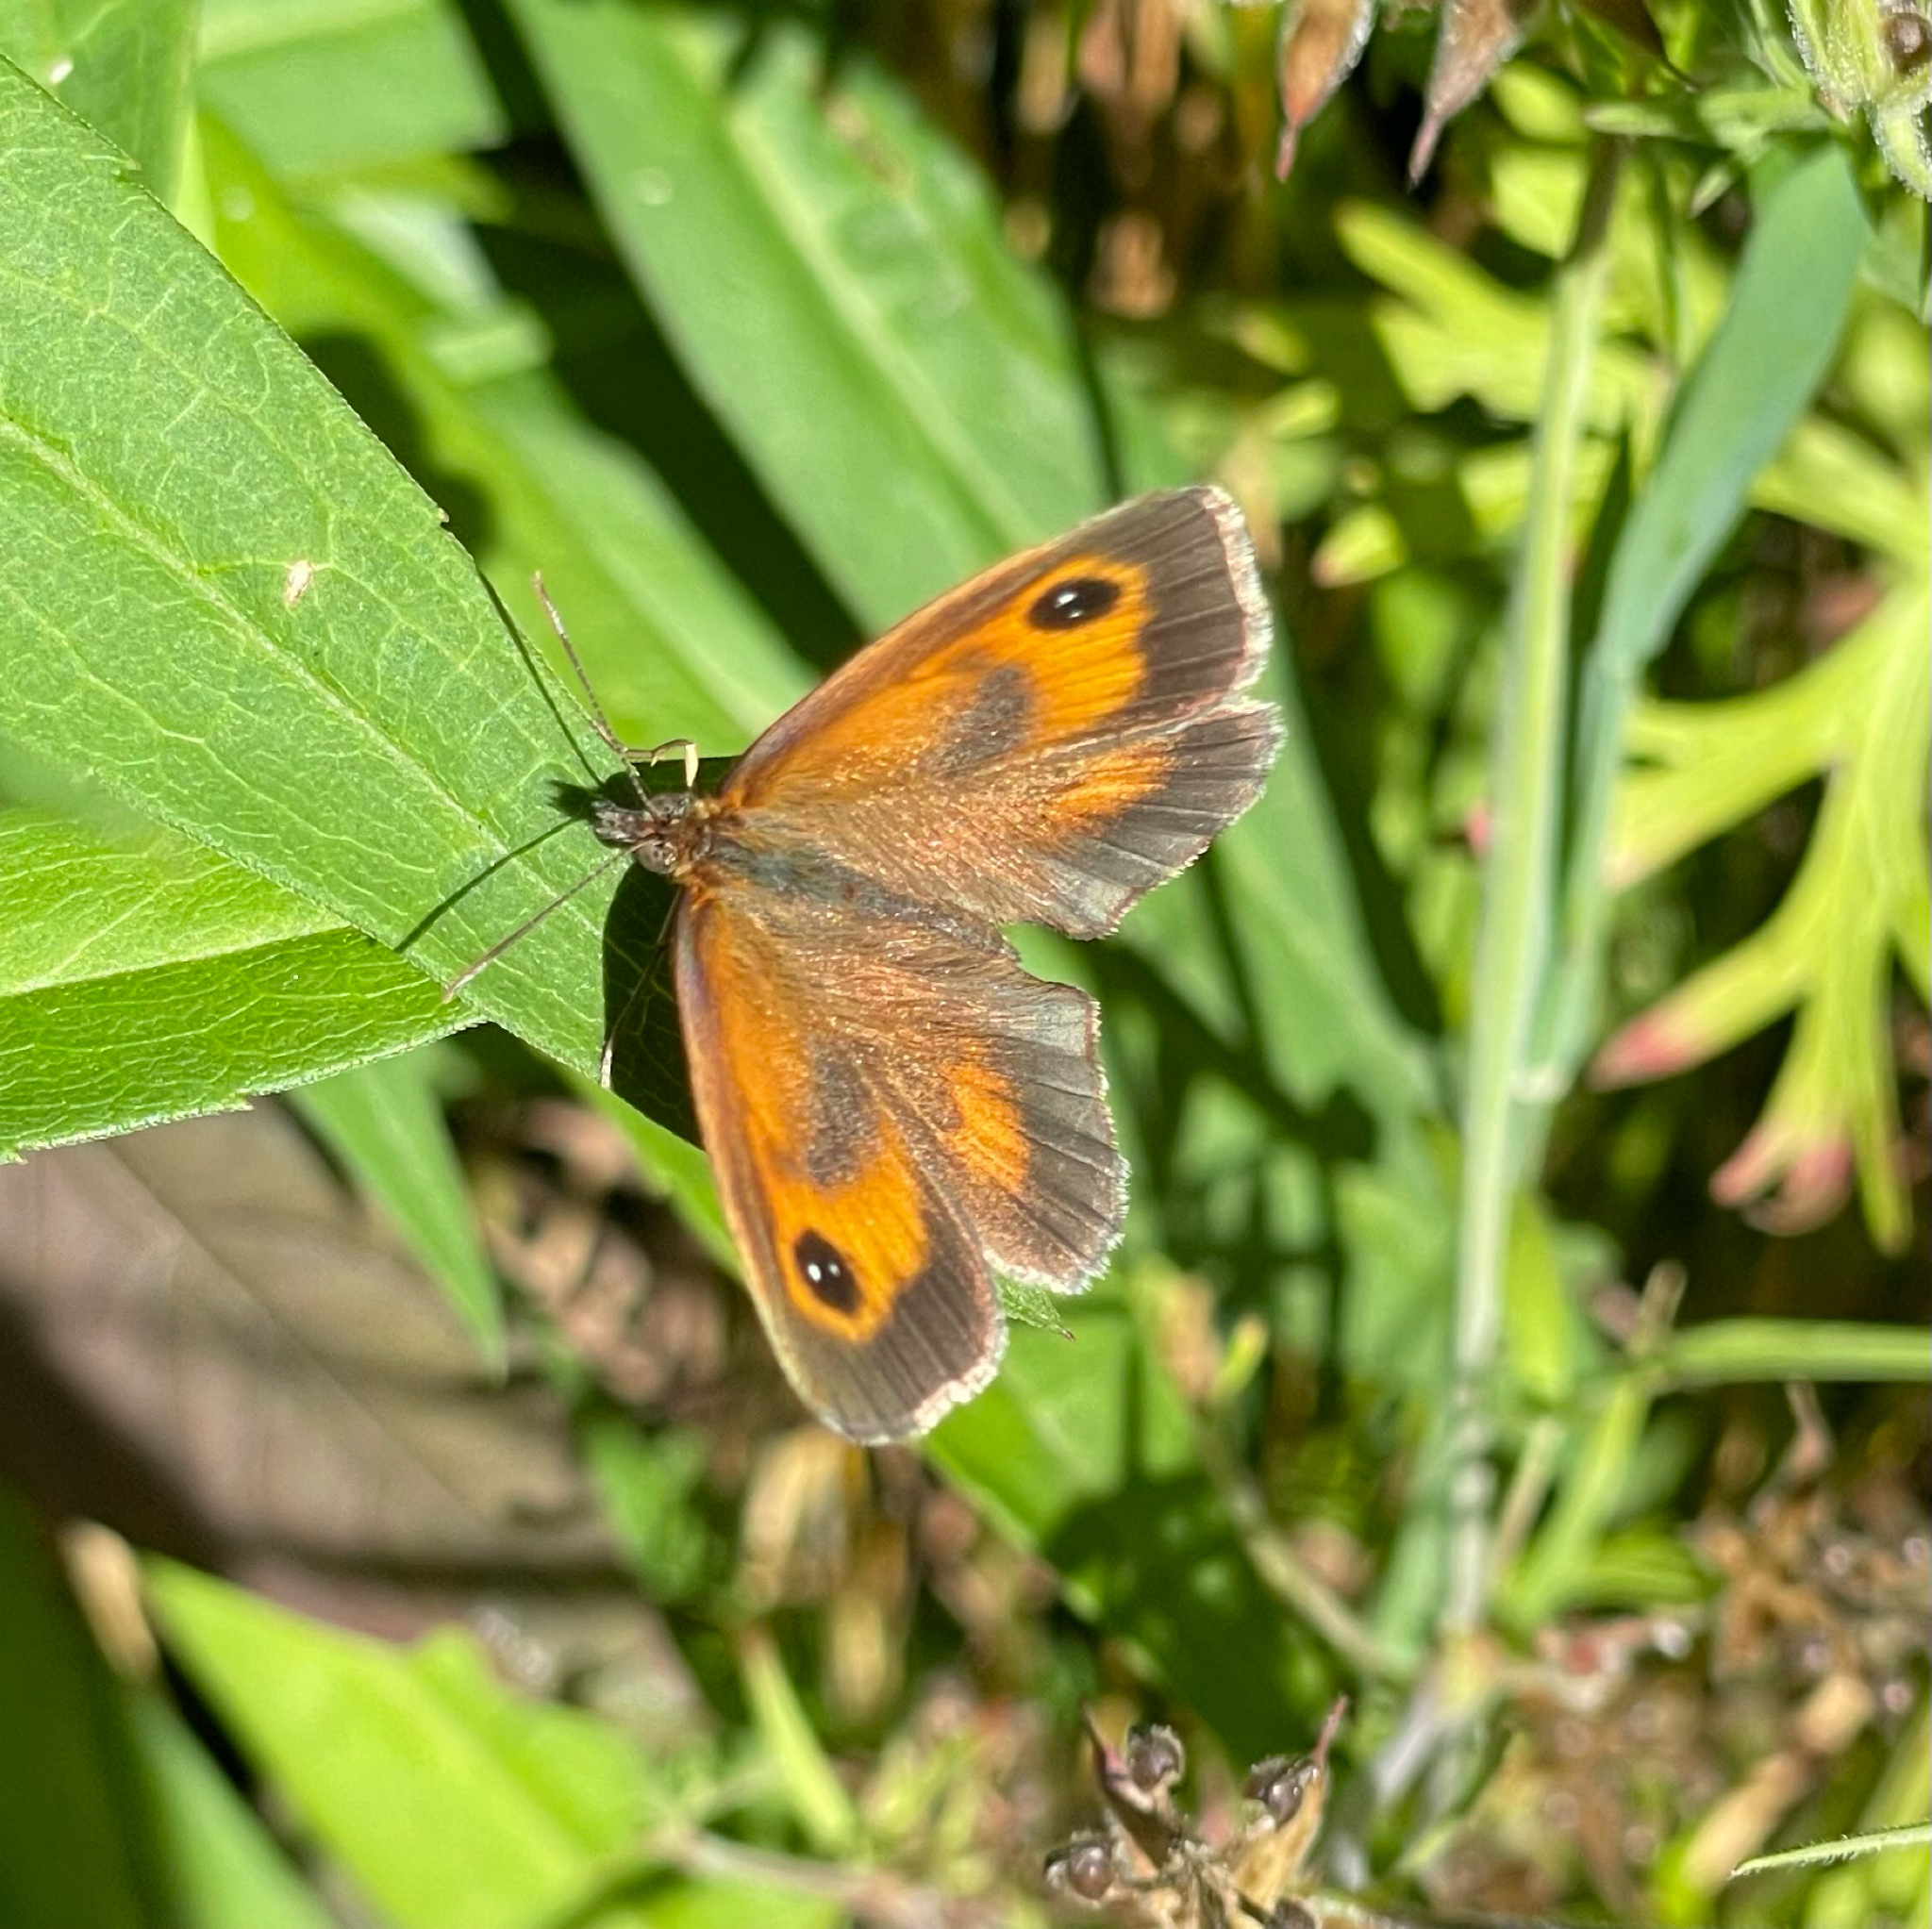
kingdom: Animalia
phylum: Arthropoda
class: Insecta
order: Lepidoptera
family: Nymphalidae
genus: Pyronia
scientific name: Pyronia tithonus
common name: Gatekeeper
